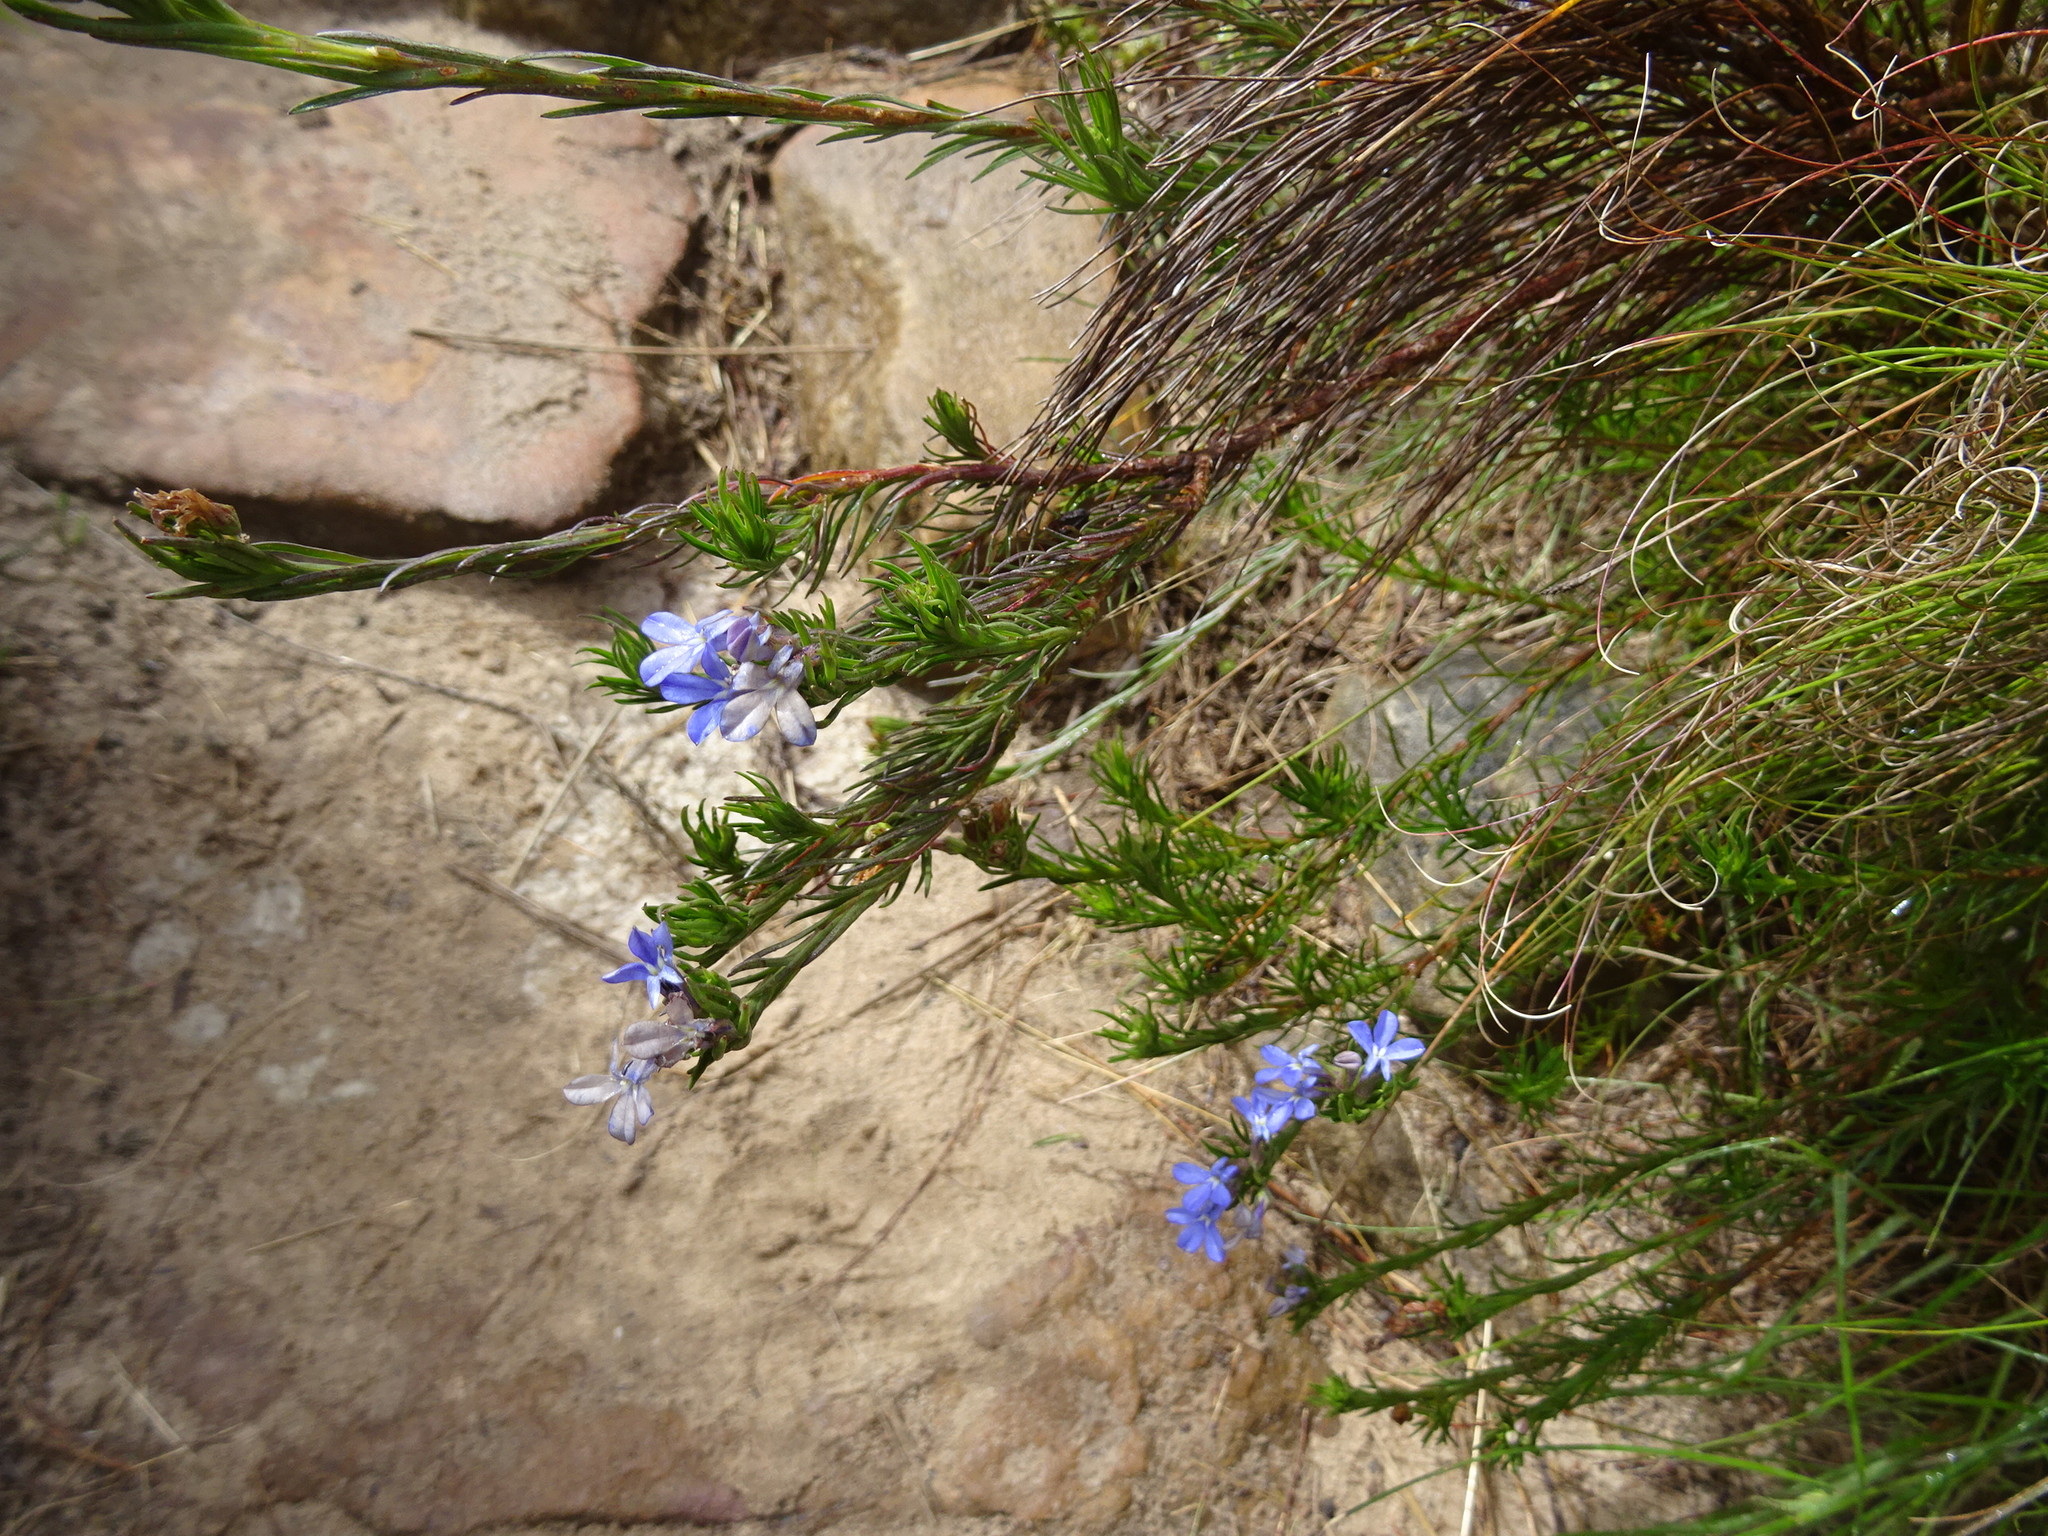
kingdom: Plantae
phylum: Tracheophyta
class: Magnoliopsida
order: Asterales
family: Campanulaceae
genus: Lobelia
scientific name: Lobelia pinifolia
